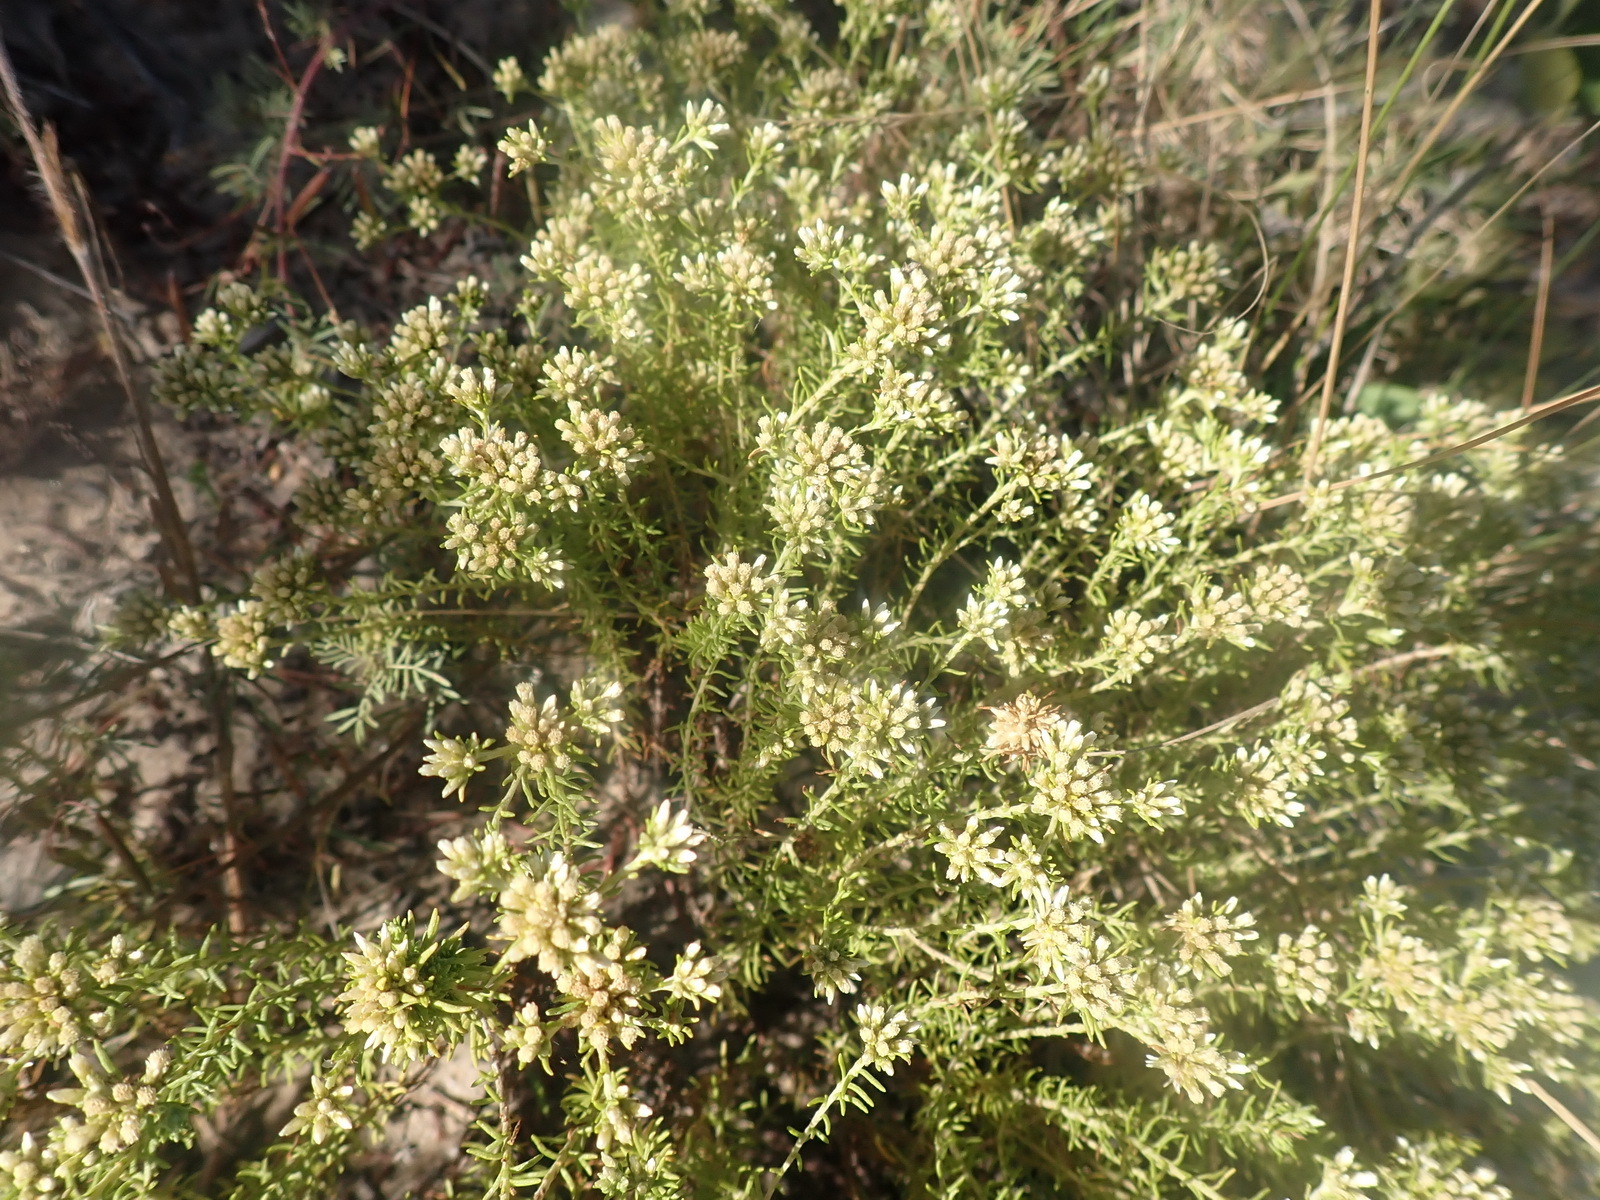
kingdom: Plantae
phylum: Tracheophyta
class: Magnoliopsida
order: Asterales
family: Asteraceae
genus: Helichrysum
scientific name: Helichrysum niveum
